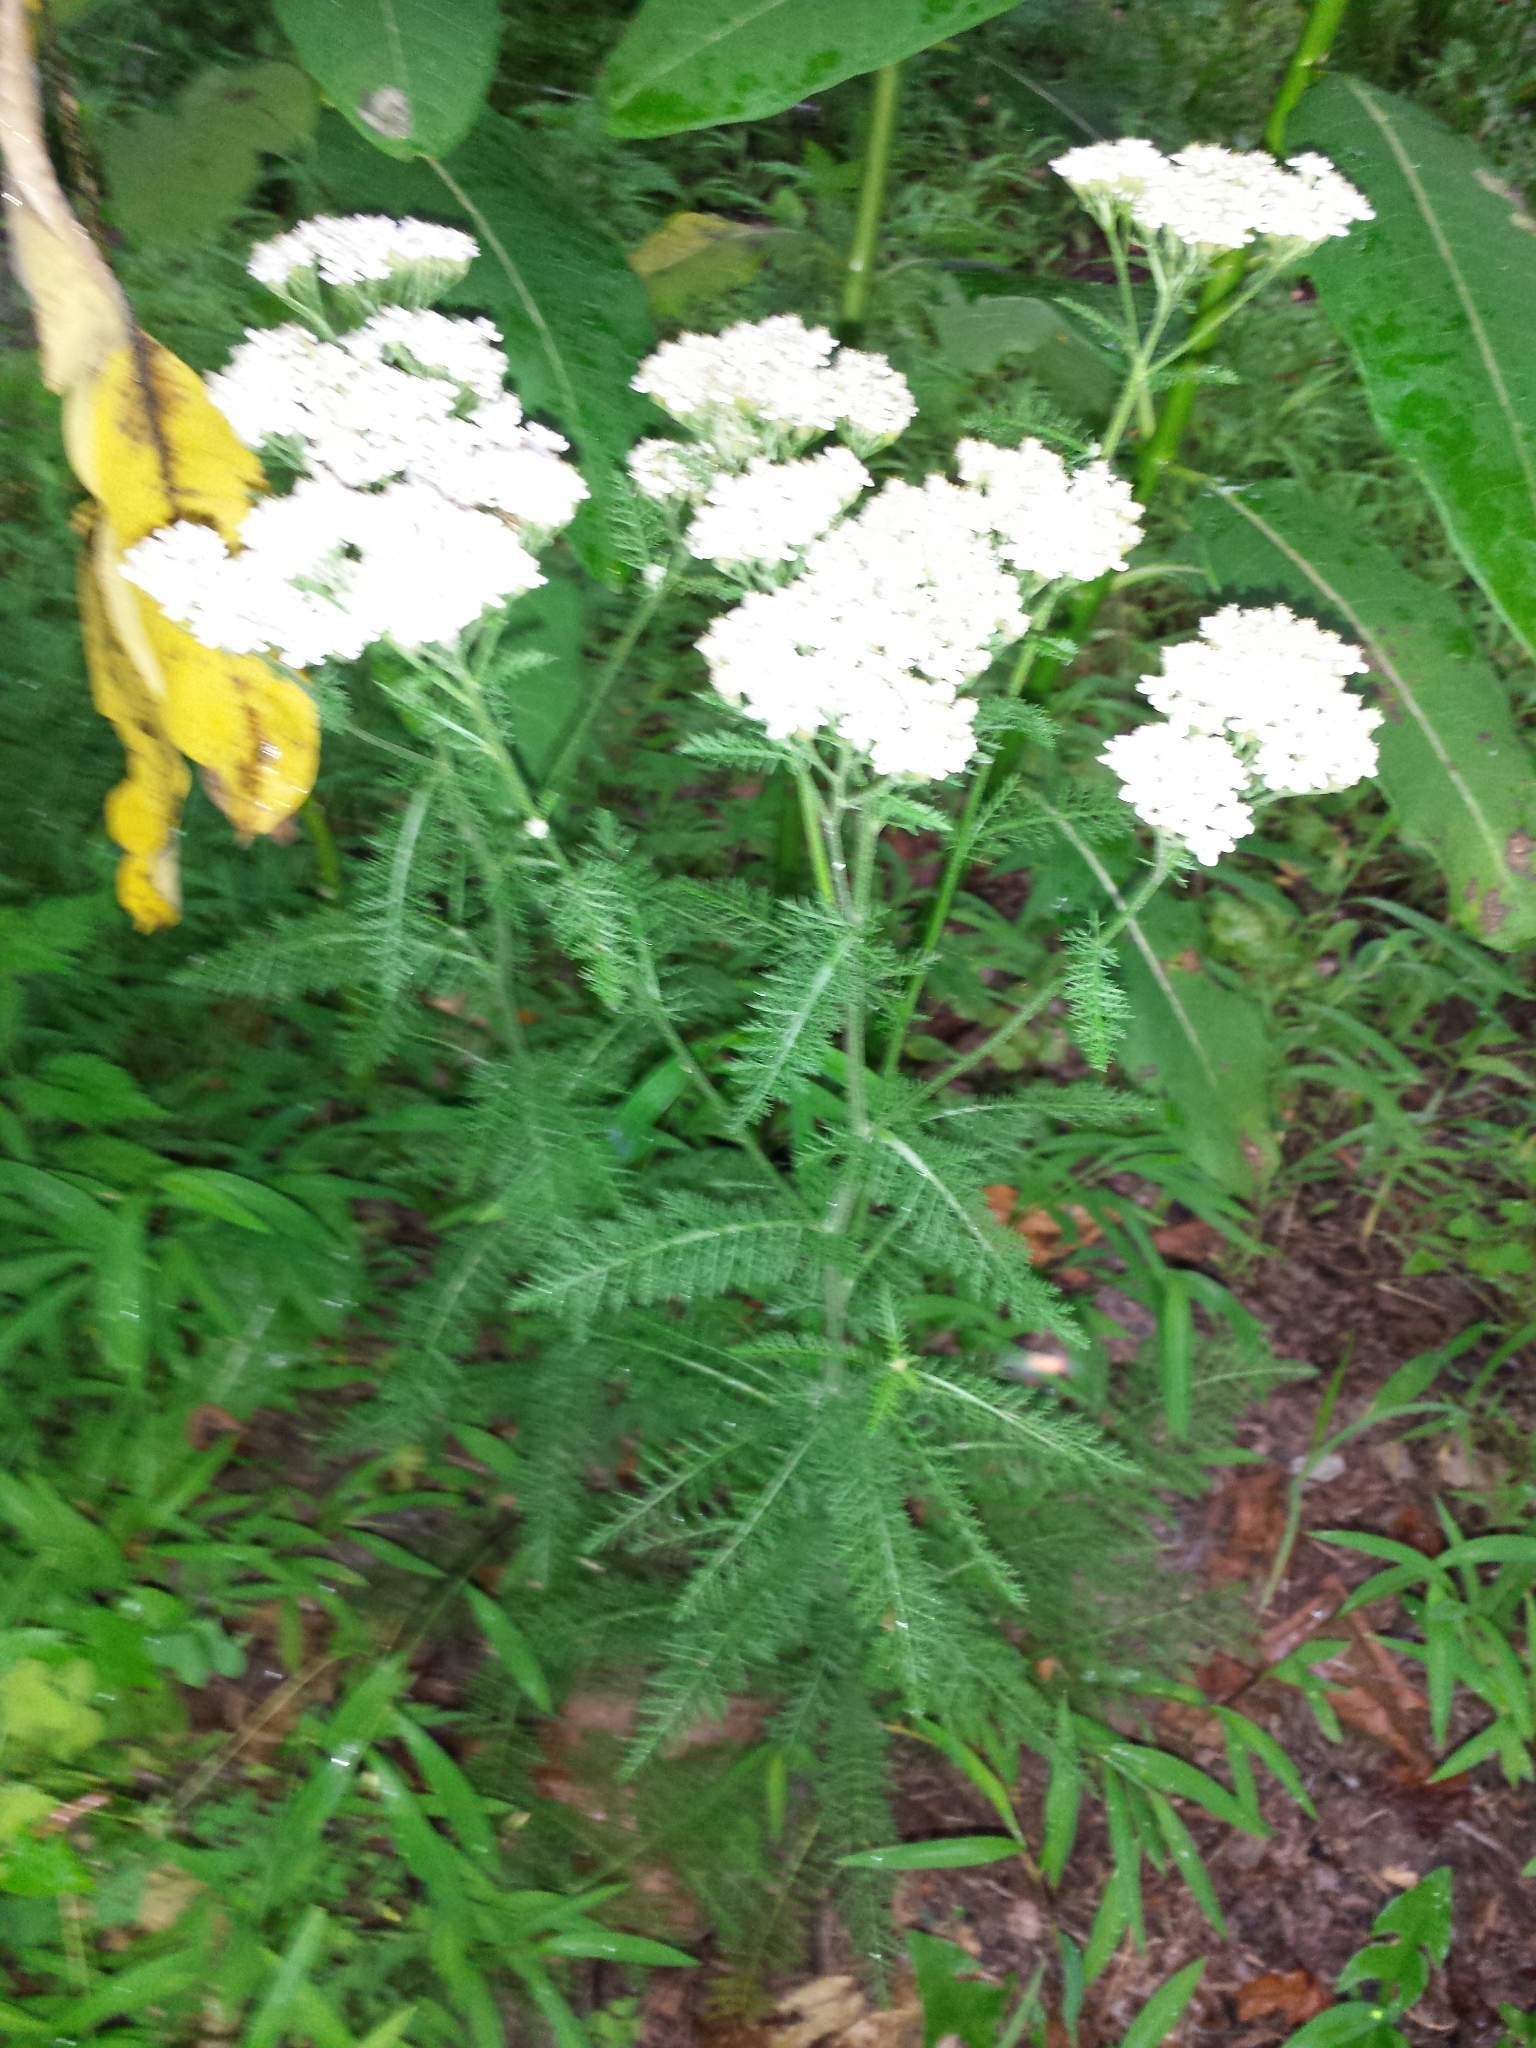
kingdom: Plantae
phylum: Tracheophyta
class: Magnoliopsida
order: Asterales
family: Asteraceae
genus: Achillea
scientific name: Achillea millefolium
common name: Yarrow
